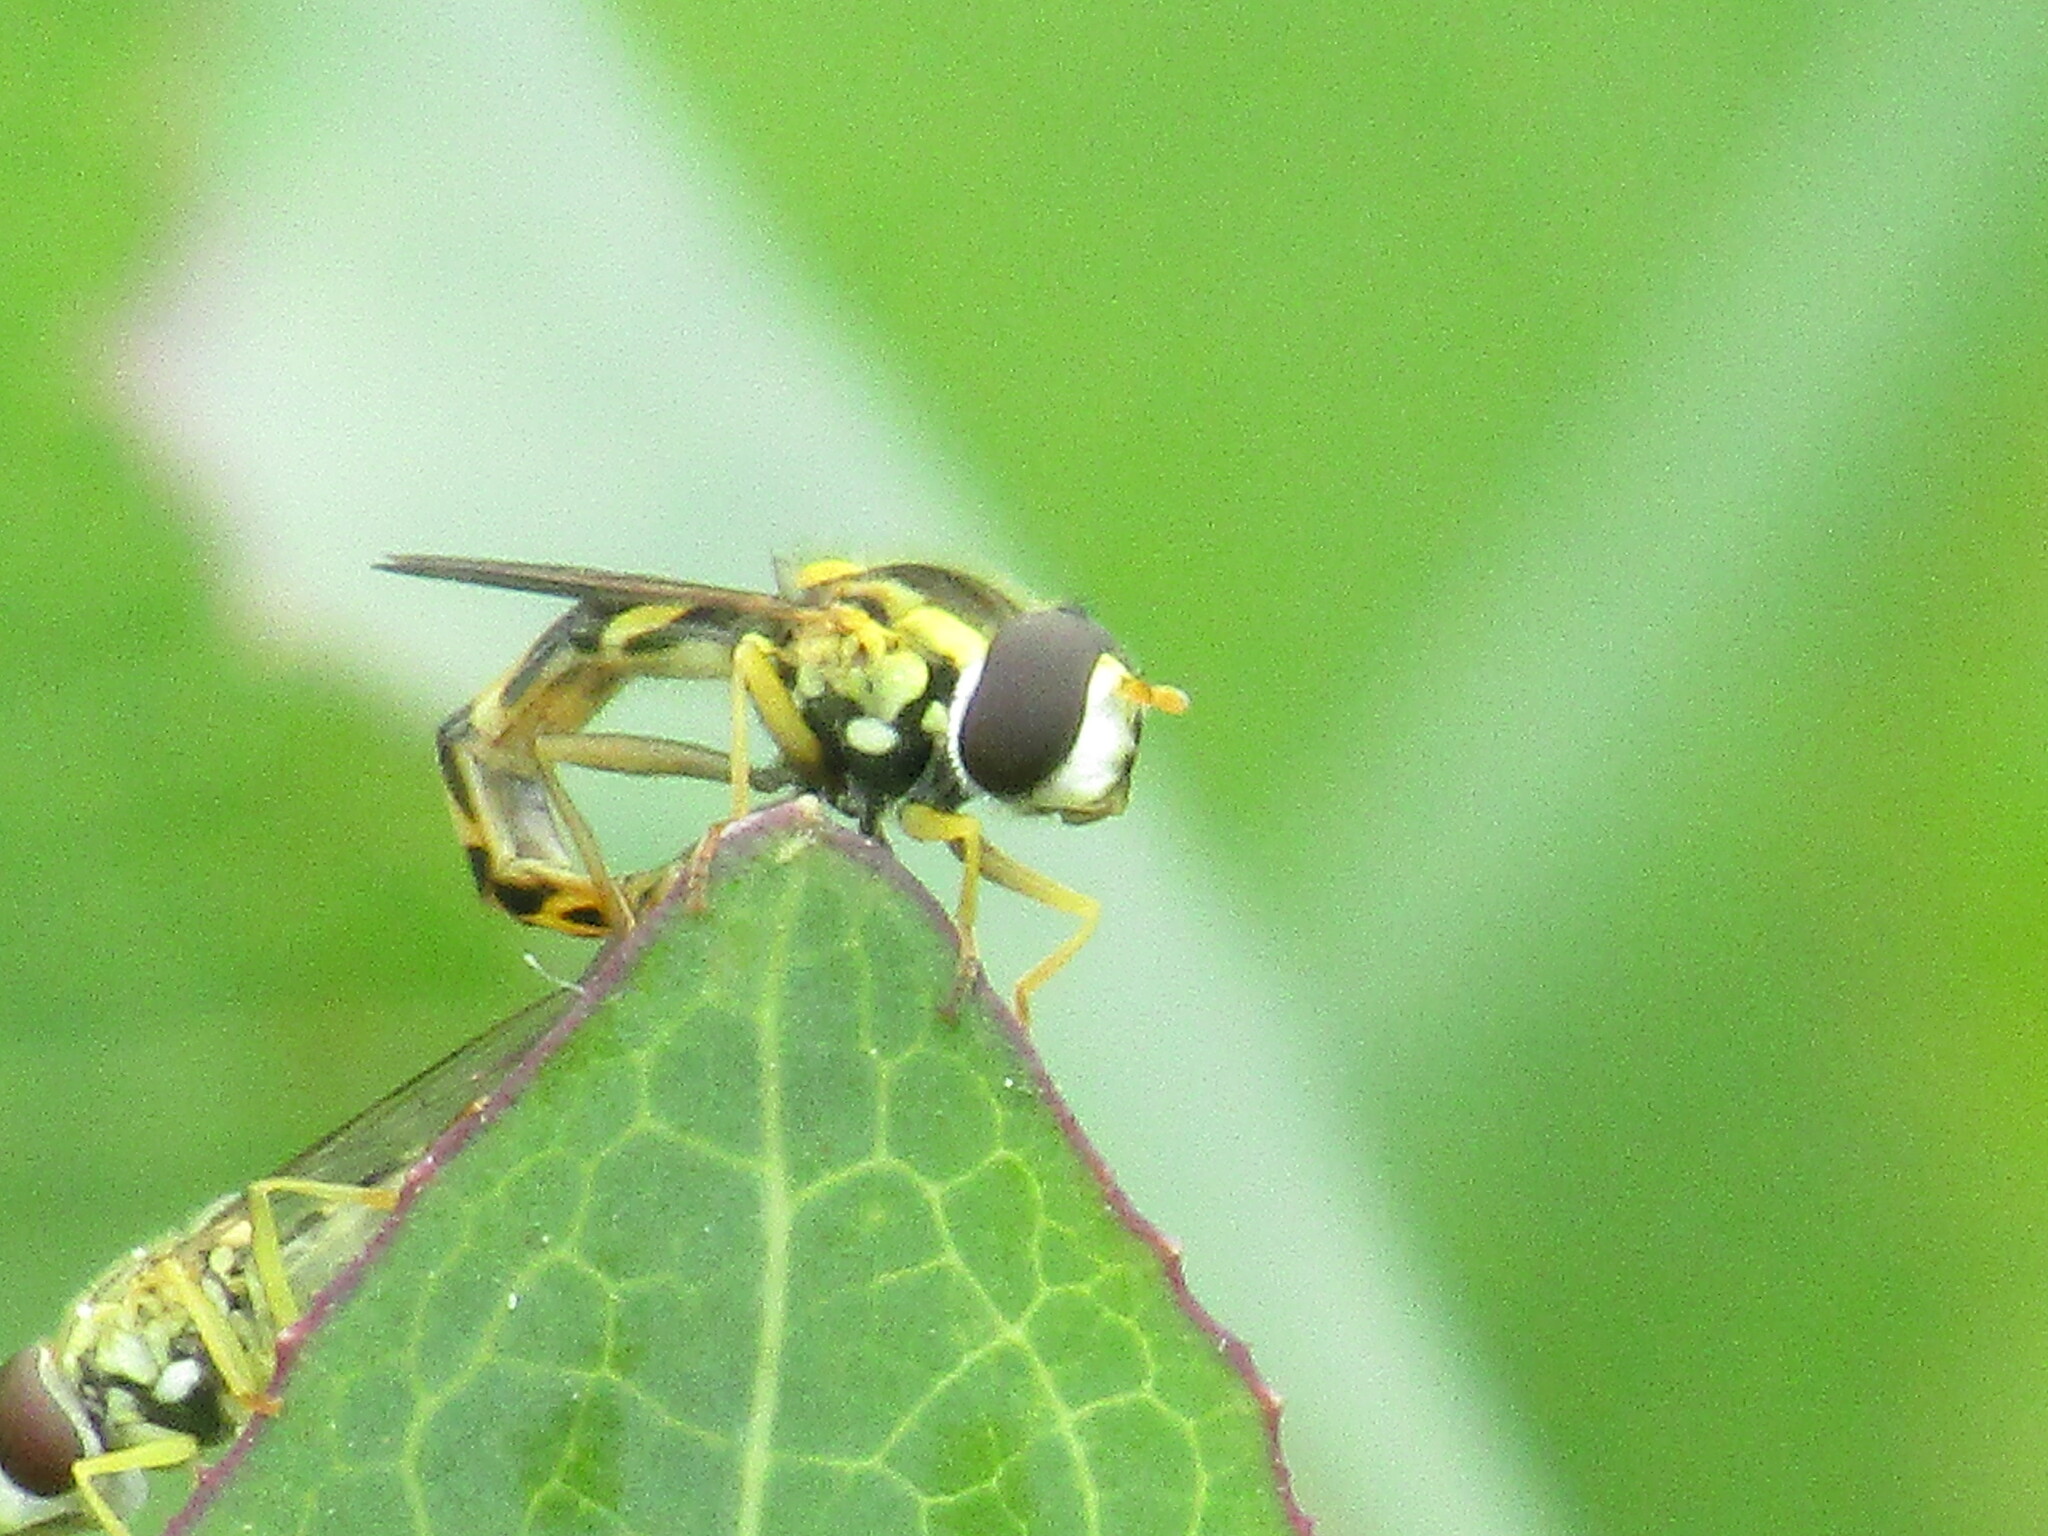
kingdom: Animalia
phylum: Arthropoda
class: Insecta
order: Diptera
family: Syrphidae
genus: Sphaerophoria
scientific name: Sphaerophoria scripta
